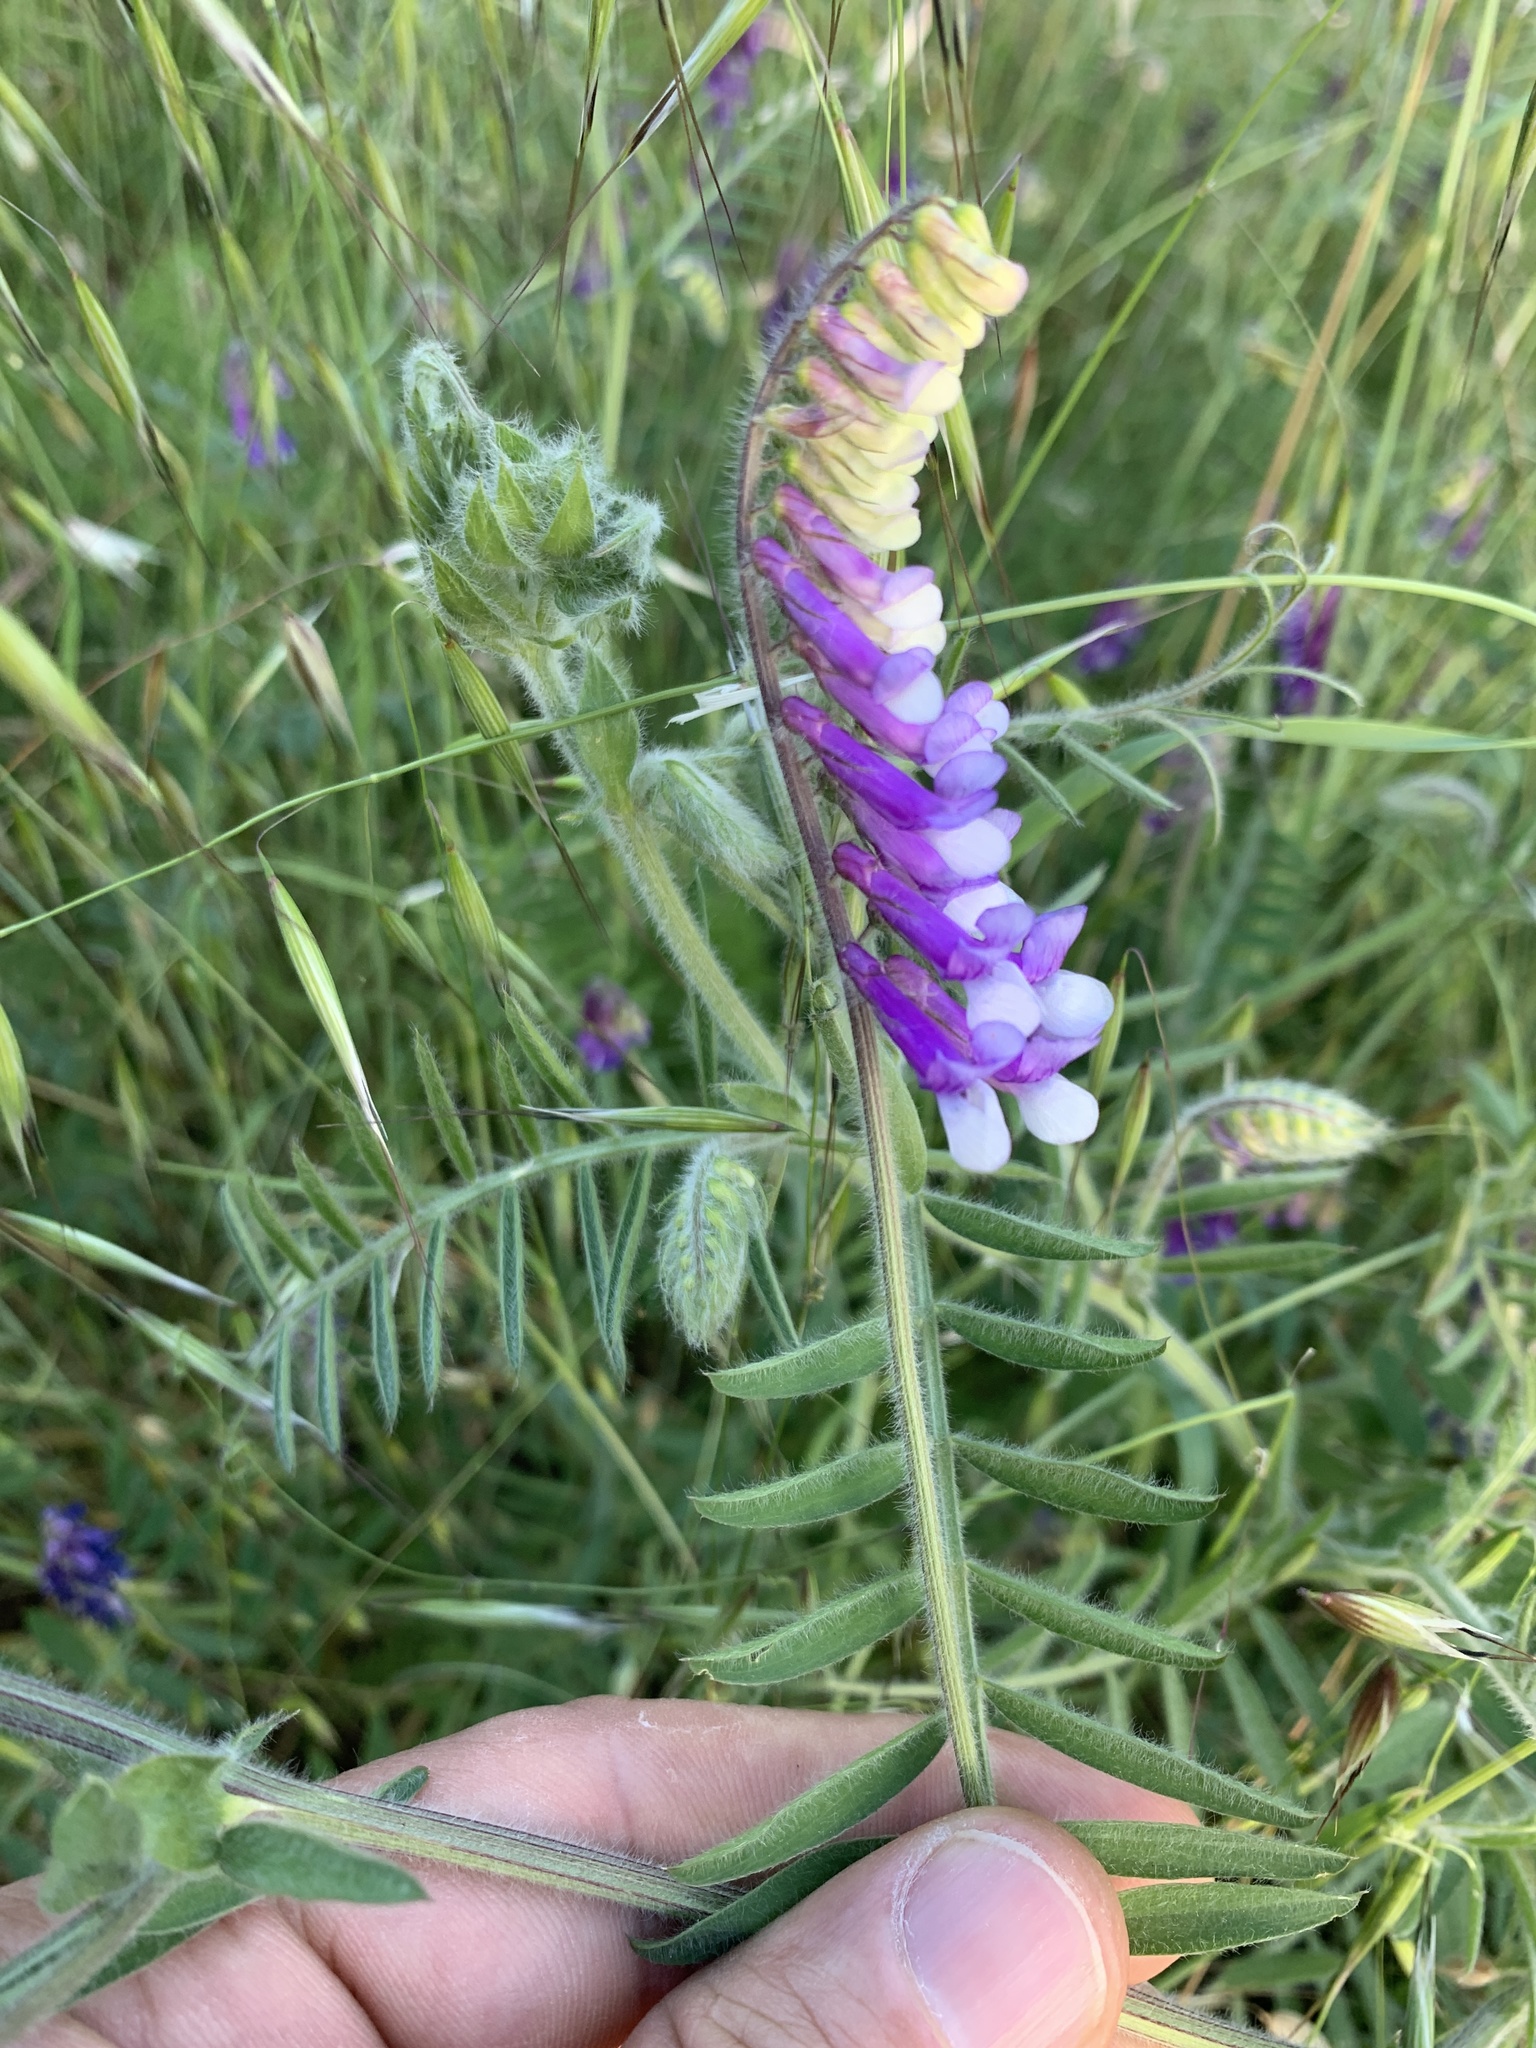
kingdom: Plantae
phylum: Tracheophyta
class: Magnoliopsida
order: Fabales
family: Fabaceae
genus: Vicia
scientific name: Vicia villosa
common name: Fodder vetch
